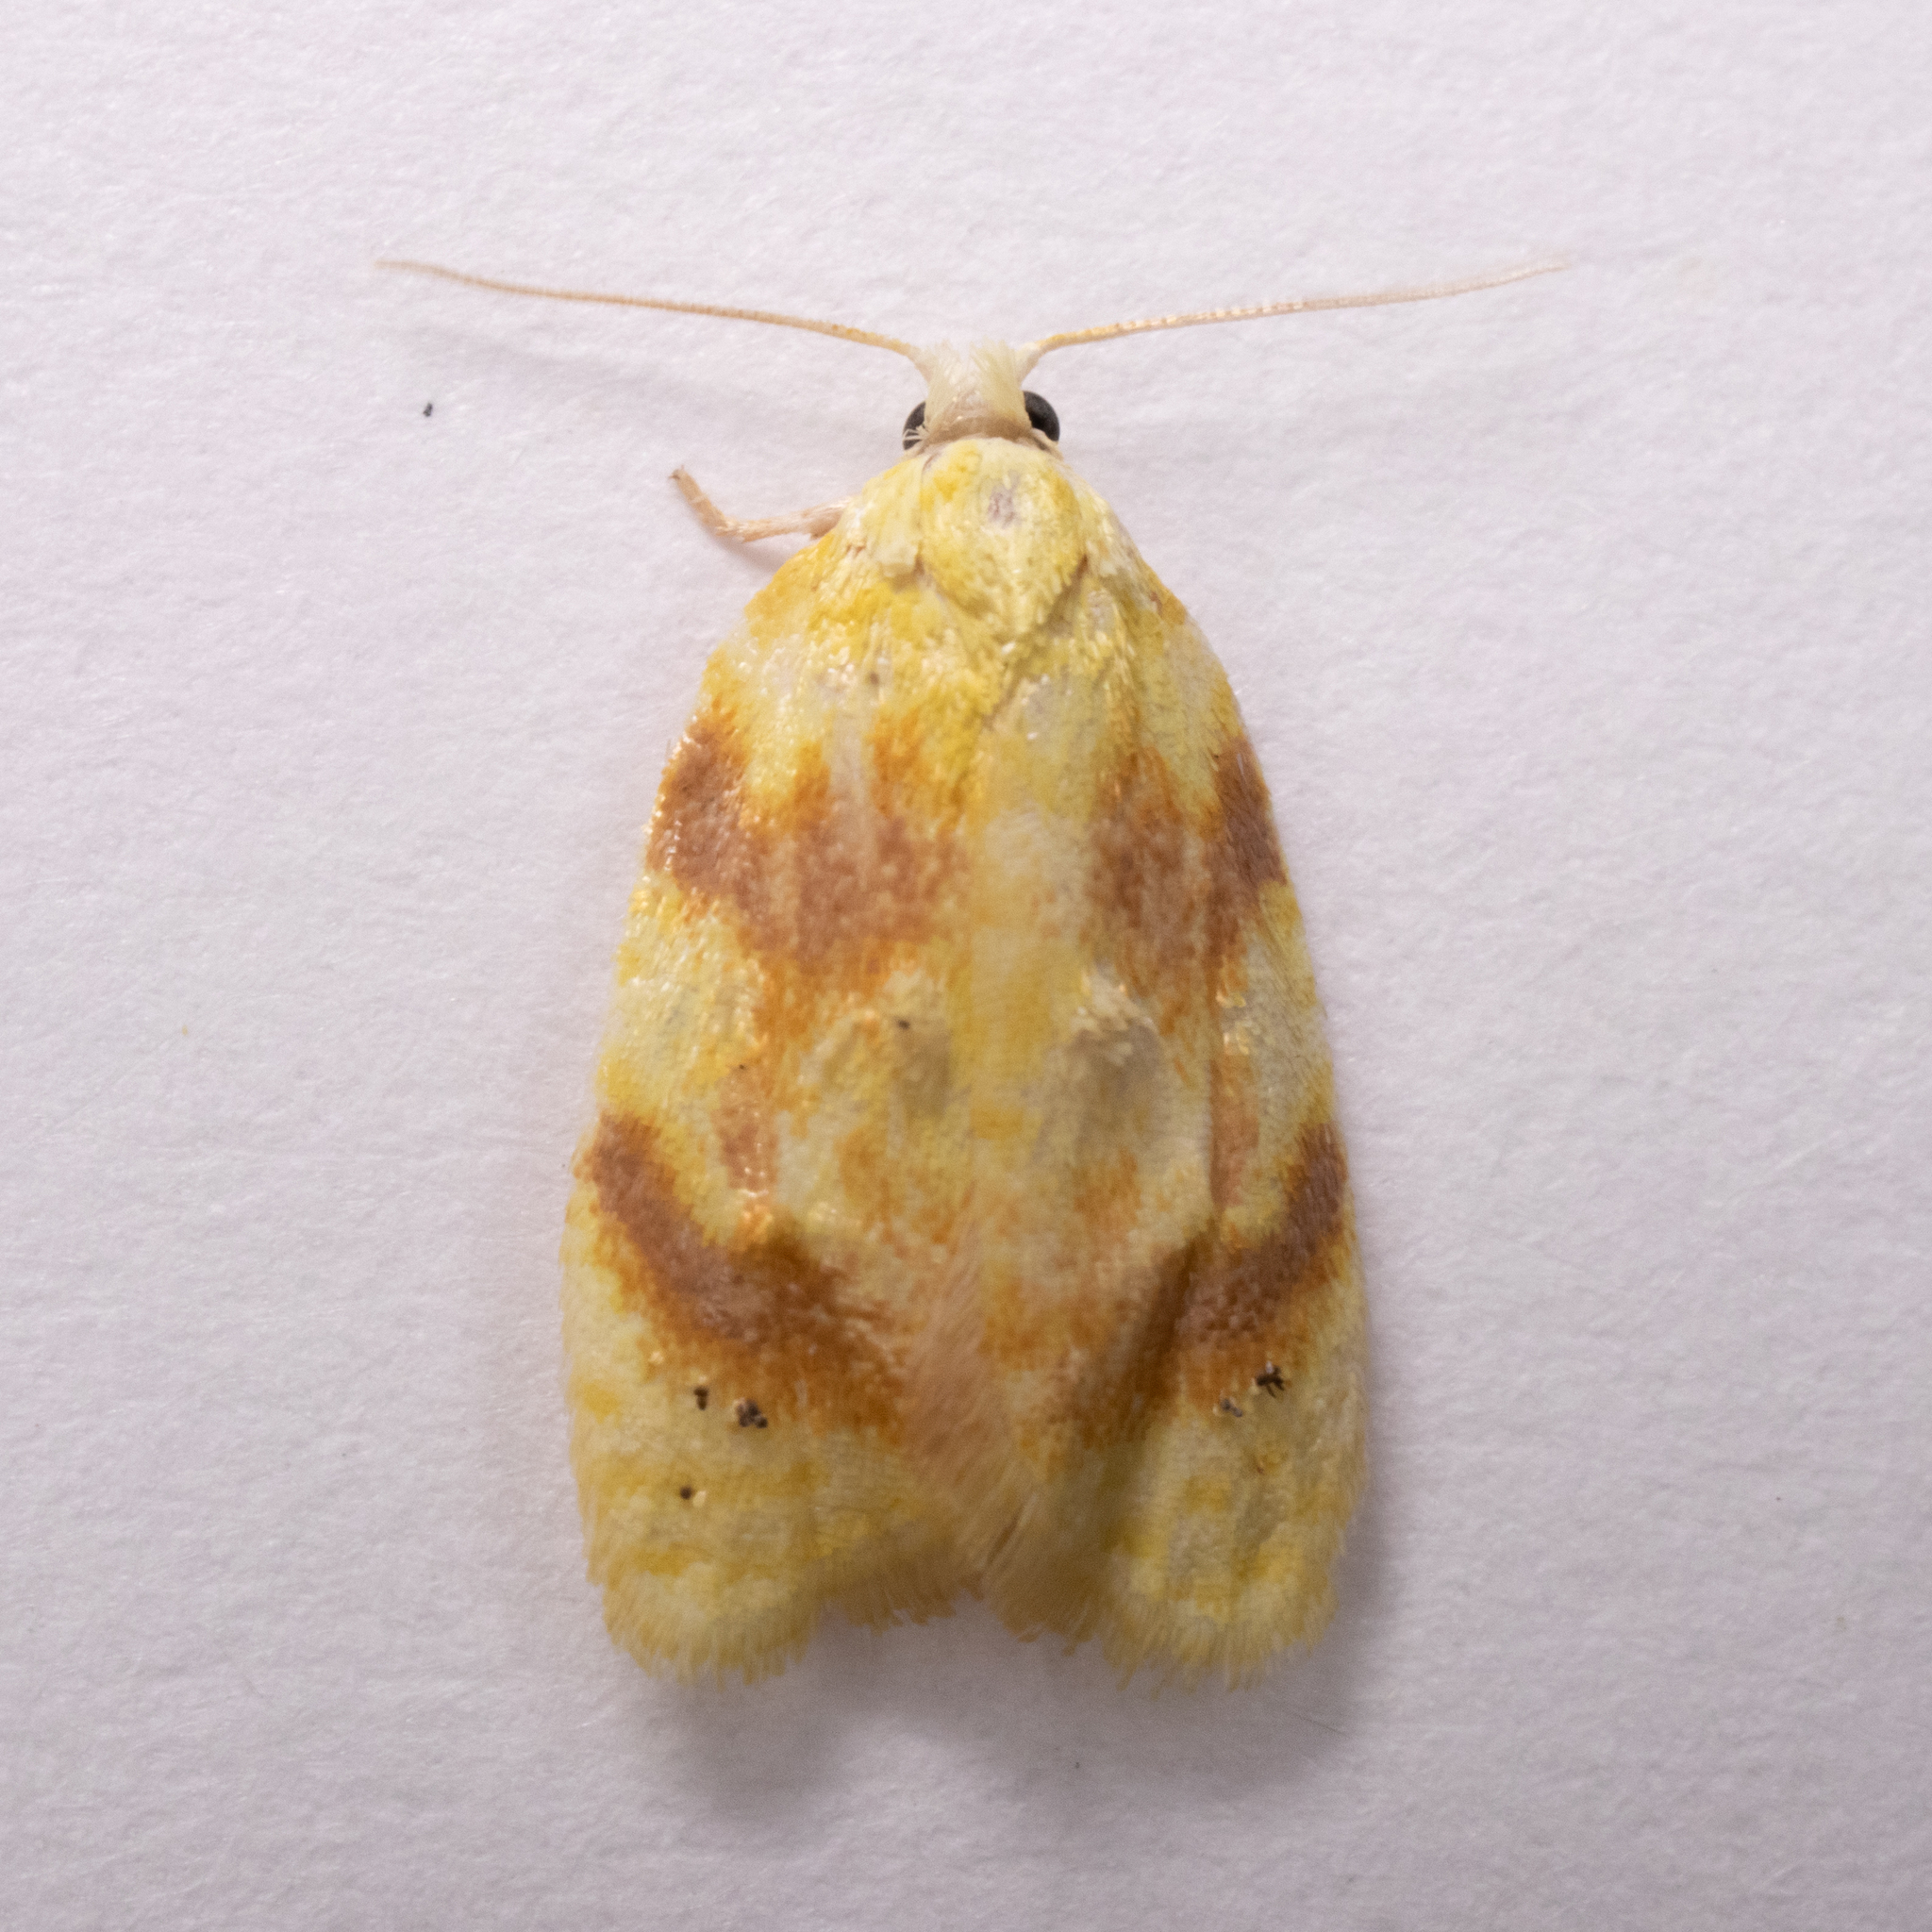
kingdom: Animalia
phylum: Arthropoda
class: Insecta
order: Lepidoptera
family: Tortricidae
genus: Acleris
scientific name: Acleris semipurpurana
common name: Oak leaftier moth
